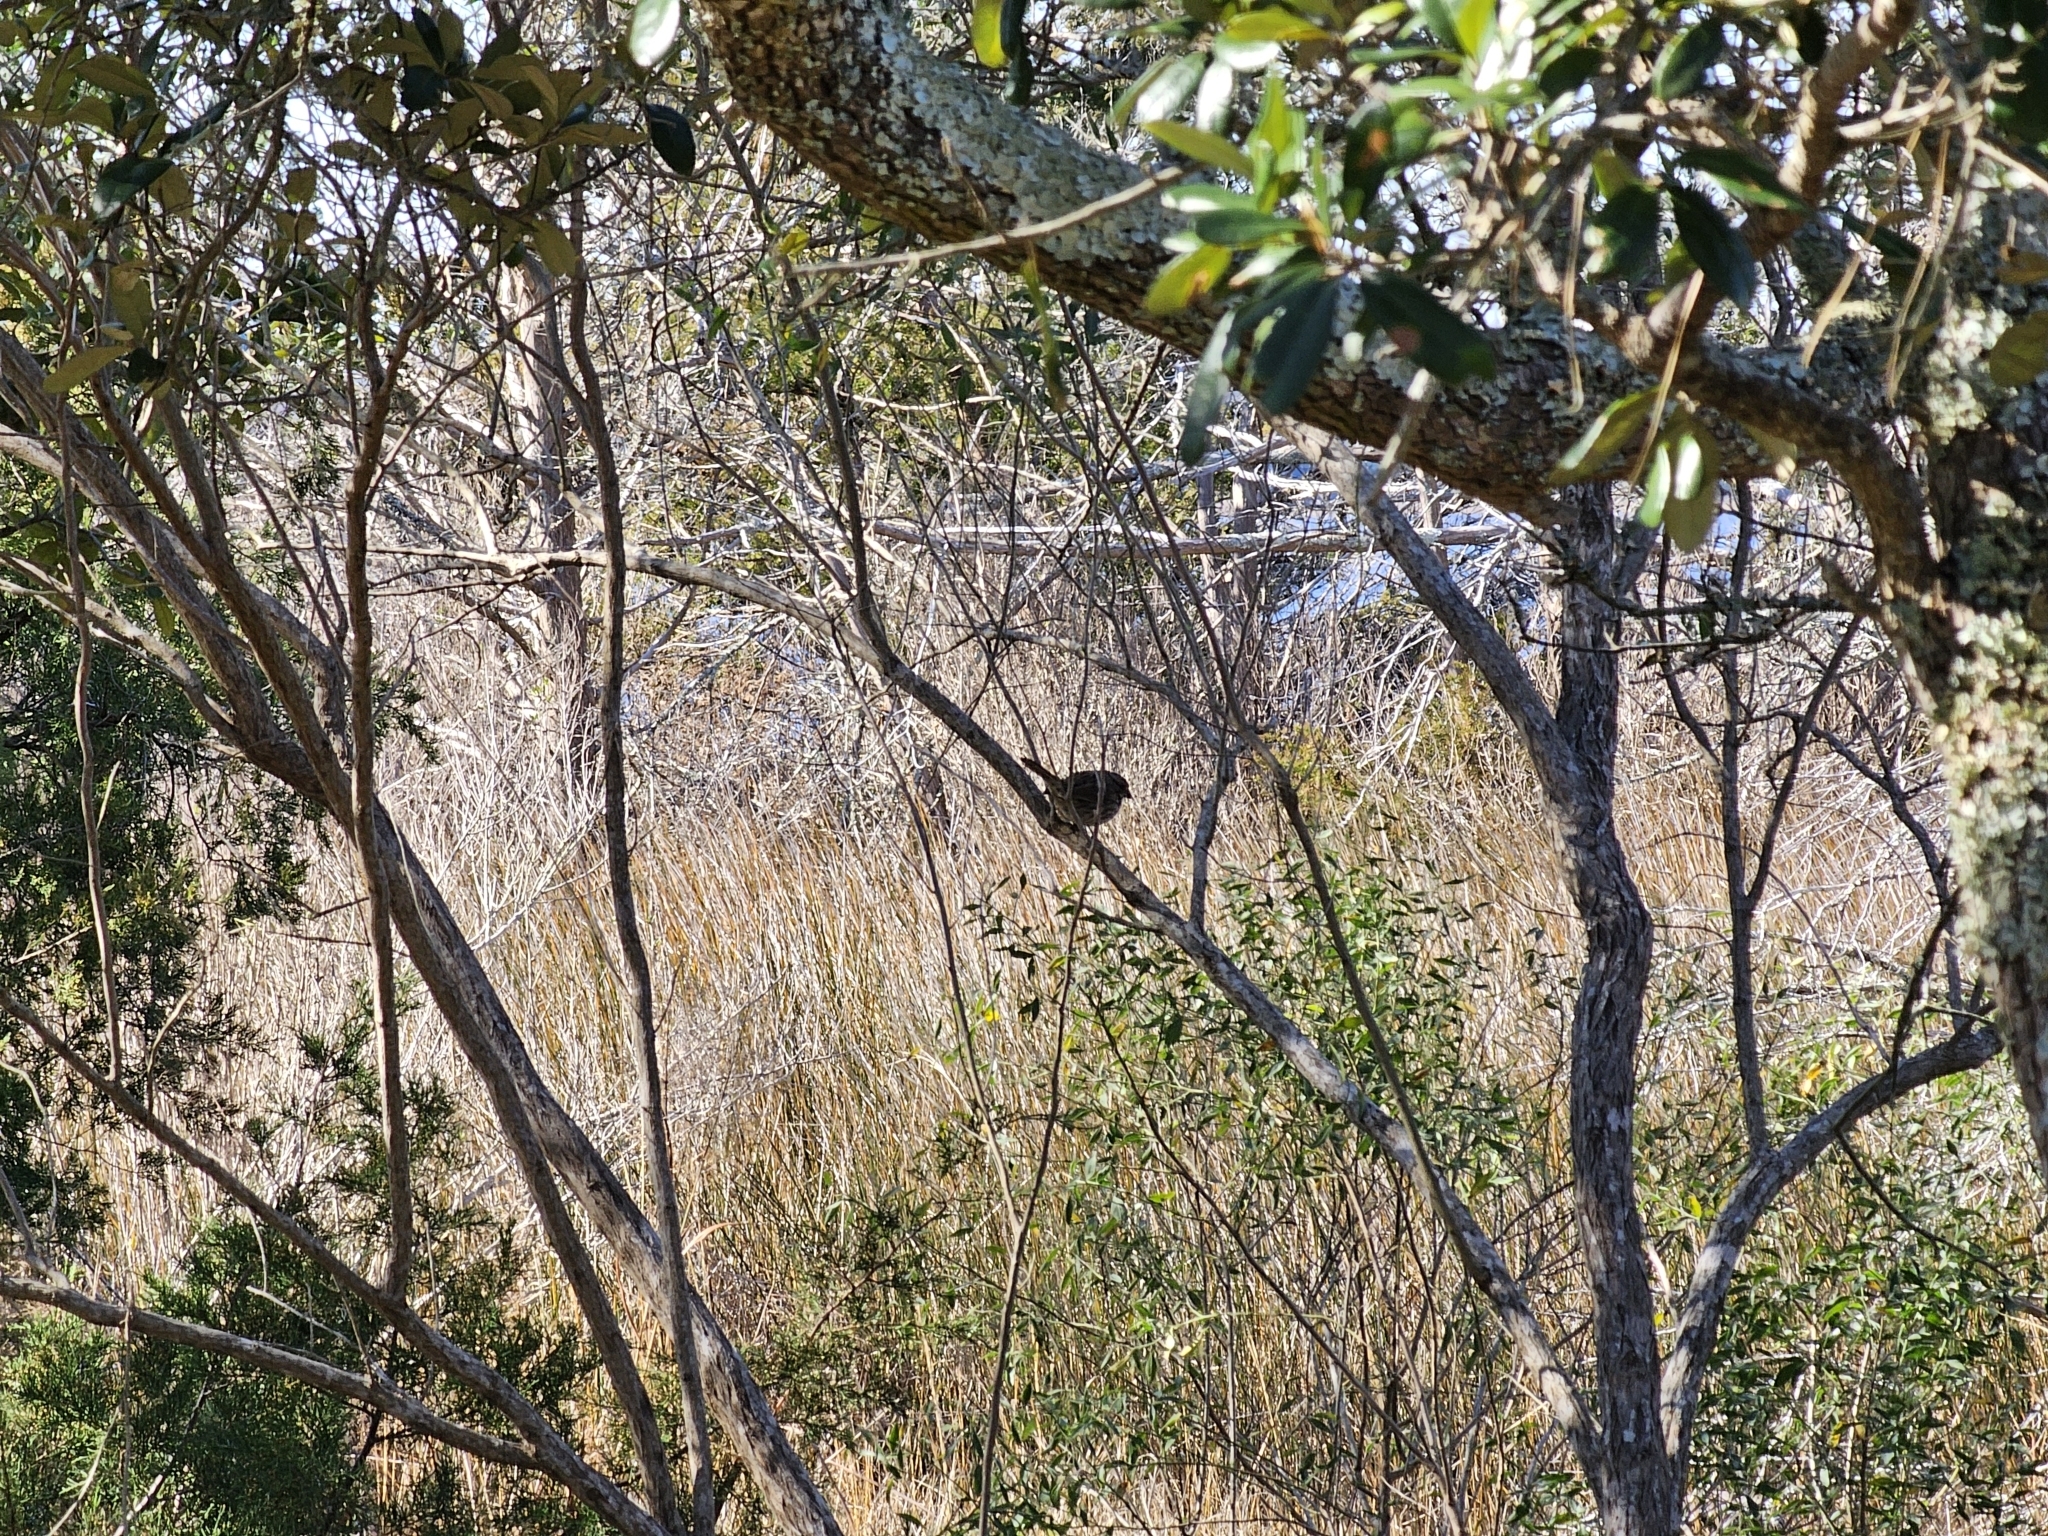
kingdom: Animalia
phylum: Chordata
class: Aves
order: Passeriformes
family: Passerellidae
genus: Melospiza
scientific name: Melospiza melodia
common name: Song sparrow
